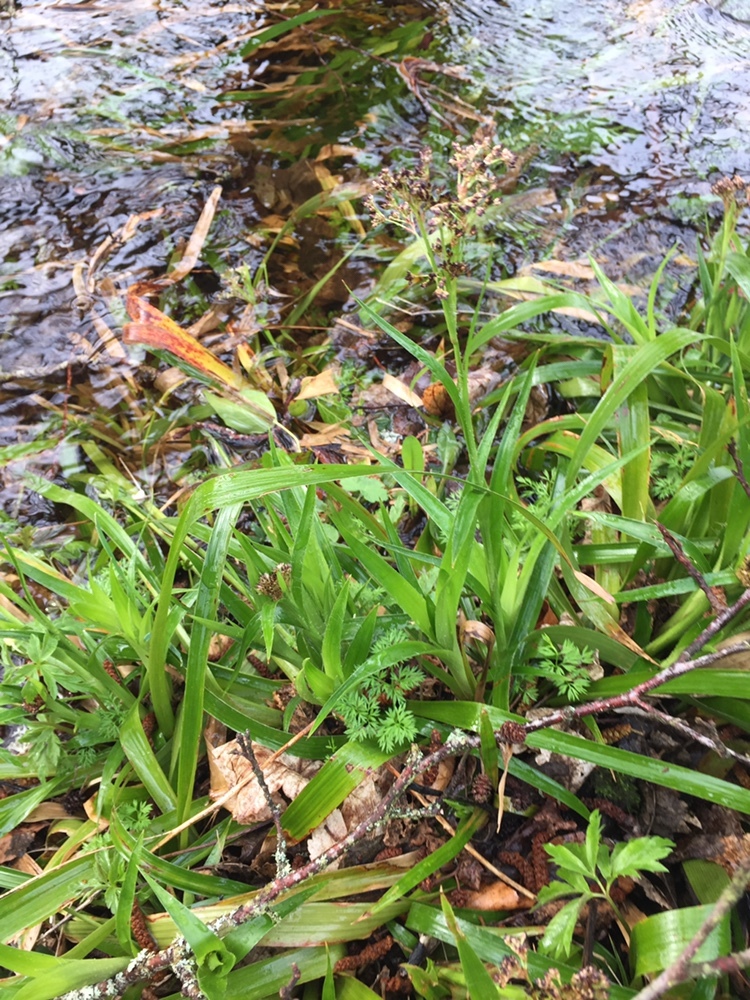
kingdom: Plantae
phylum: Tracheophyta
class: Liliopsida
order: Poales
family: Juncaceae
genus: Luzula
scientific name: Luzula sylvatica
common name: Great wood-rush
